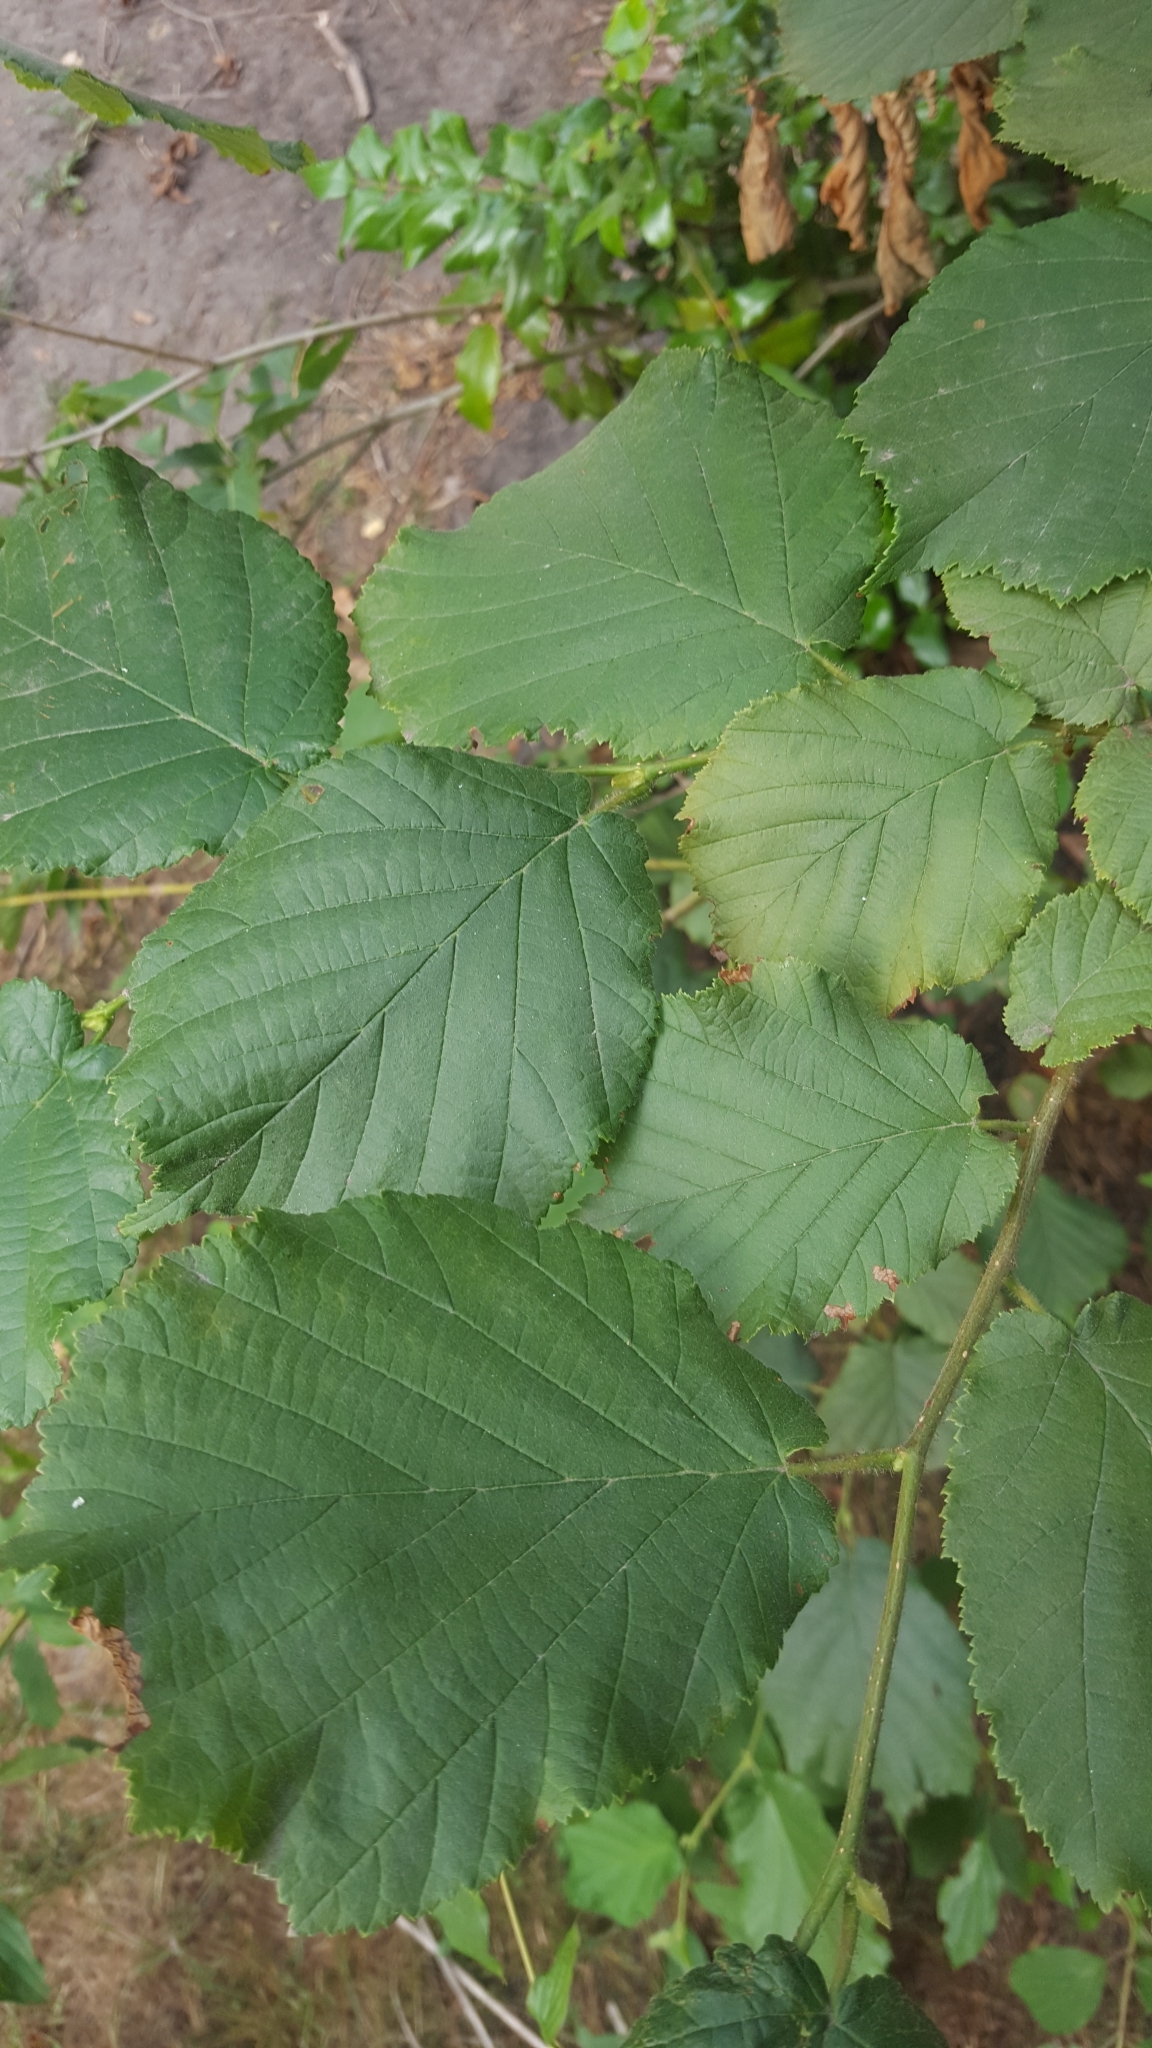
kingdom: Plantae
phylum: Tracheophyta
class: Magnoliopsida
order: Fagales
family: Betulaceae
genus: Corylus
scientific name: Corylus avellana
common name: European hazel
